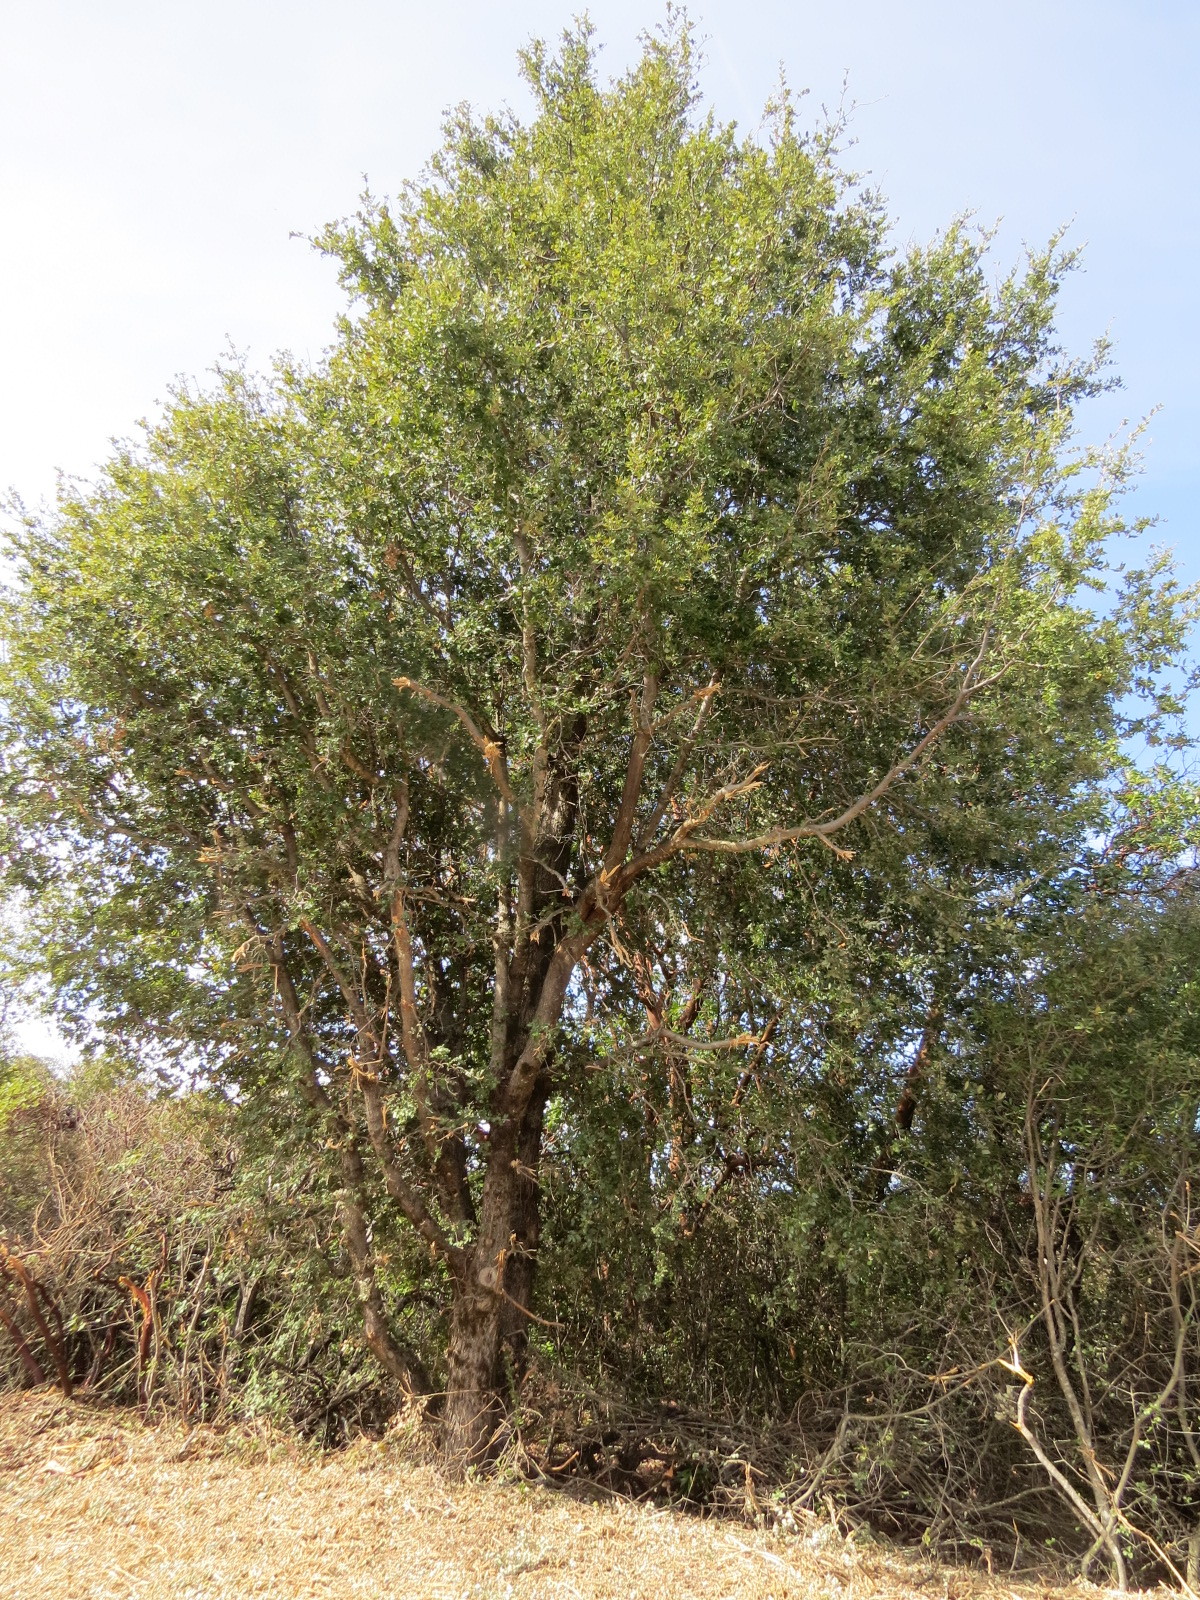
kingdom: Plantae
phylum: Tracheophyta
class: Magnoliopsida
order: Fagales
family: Fagaceae
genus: Quercus
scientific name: Quercus chrysolepis
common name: Canyon live oak
